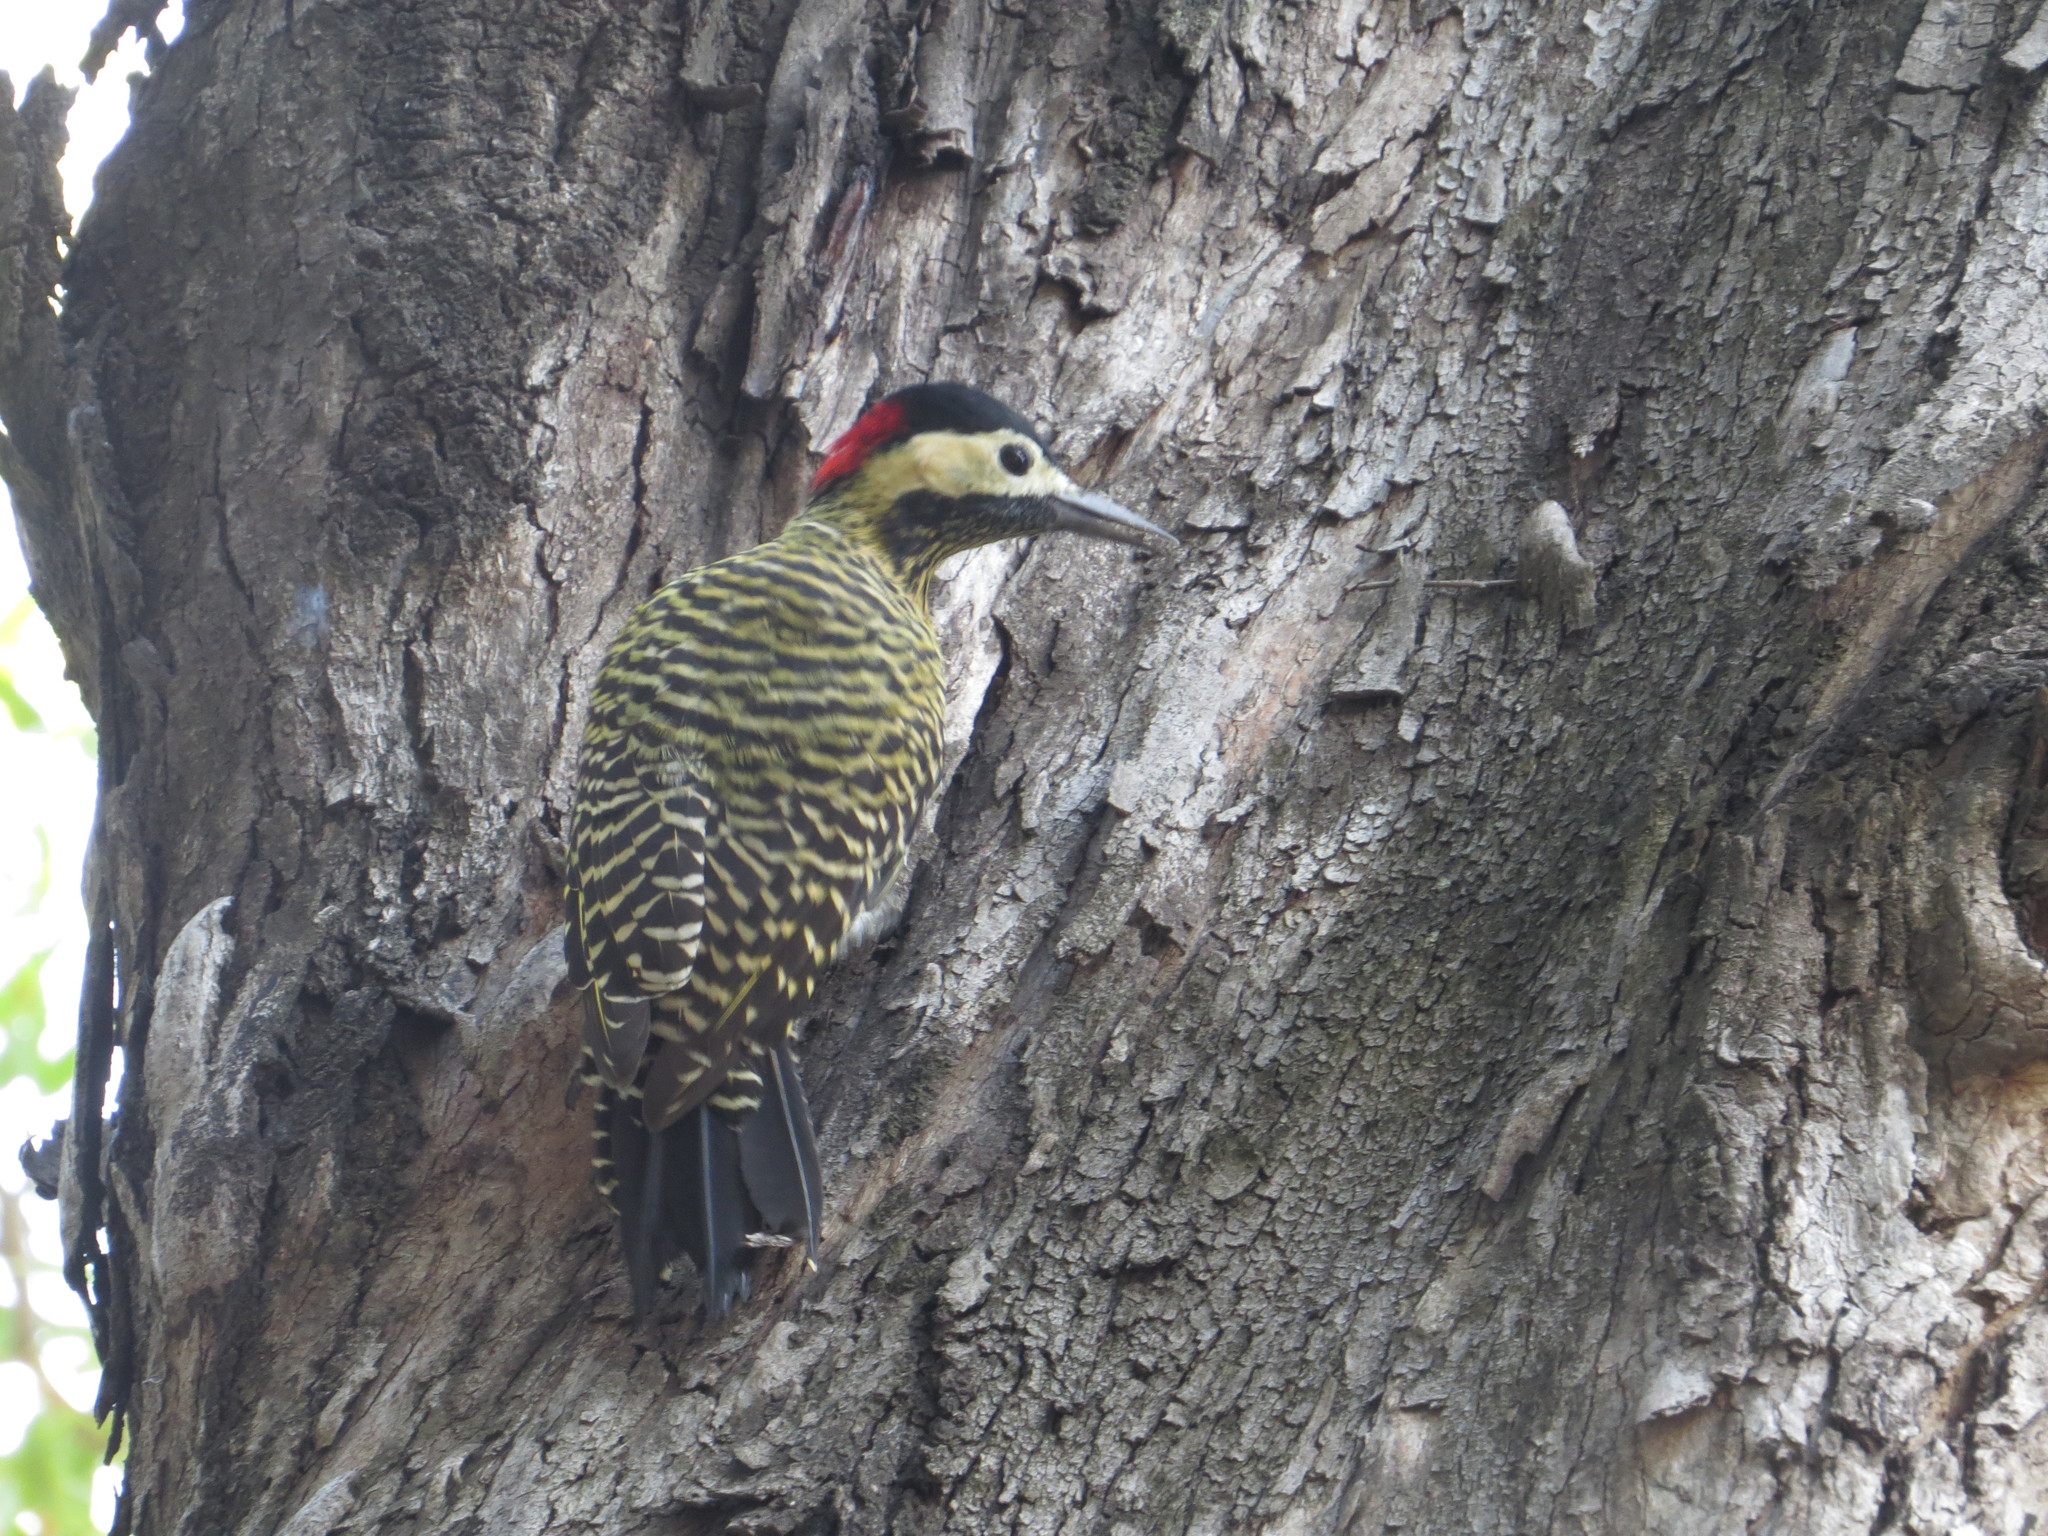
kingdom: Animalia
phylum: Chordata
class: Aves
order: Piciformes
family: Picidae
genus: Colaptes
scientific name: Colaptes melanochloros
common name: Green-barred woodpecker
